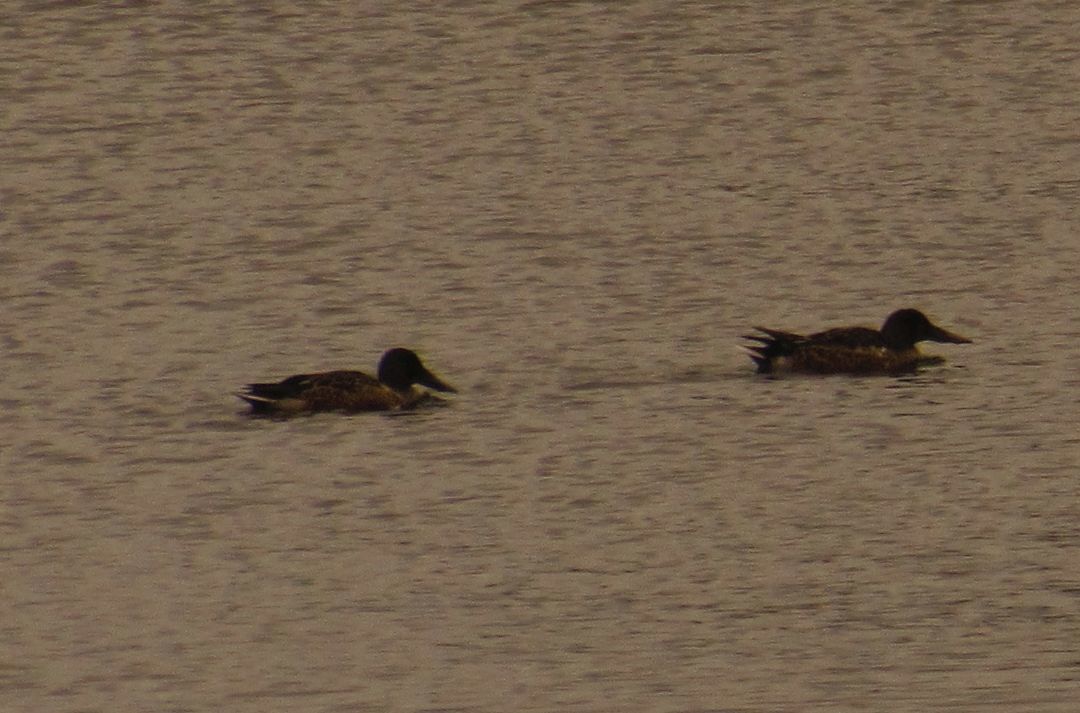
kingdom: Animalia
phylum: Chordata
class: Aves
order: Anseriformes
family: Anatidae
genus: Spatula
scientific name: Spatula clypeata
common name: Northern shoveler
